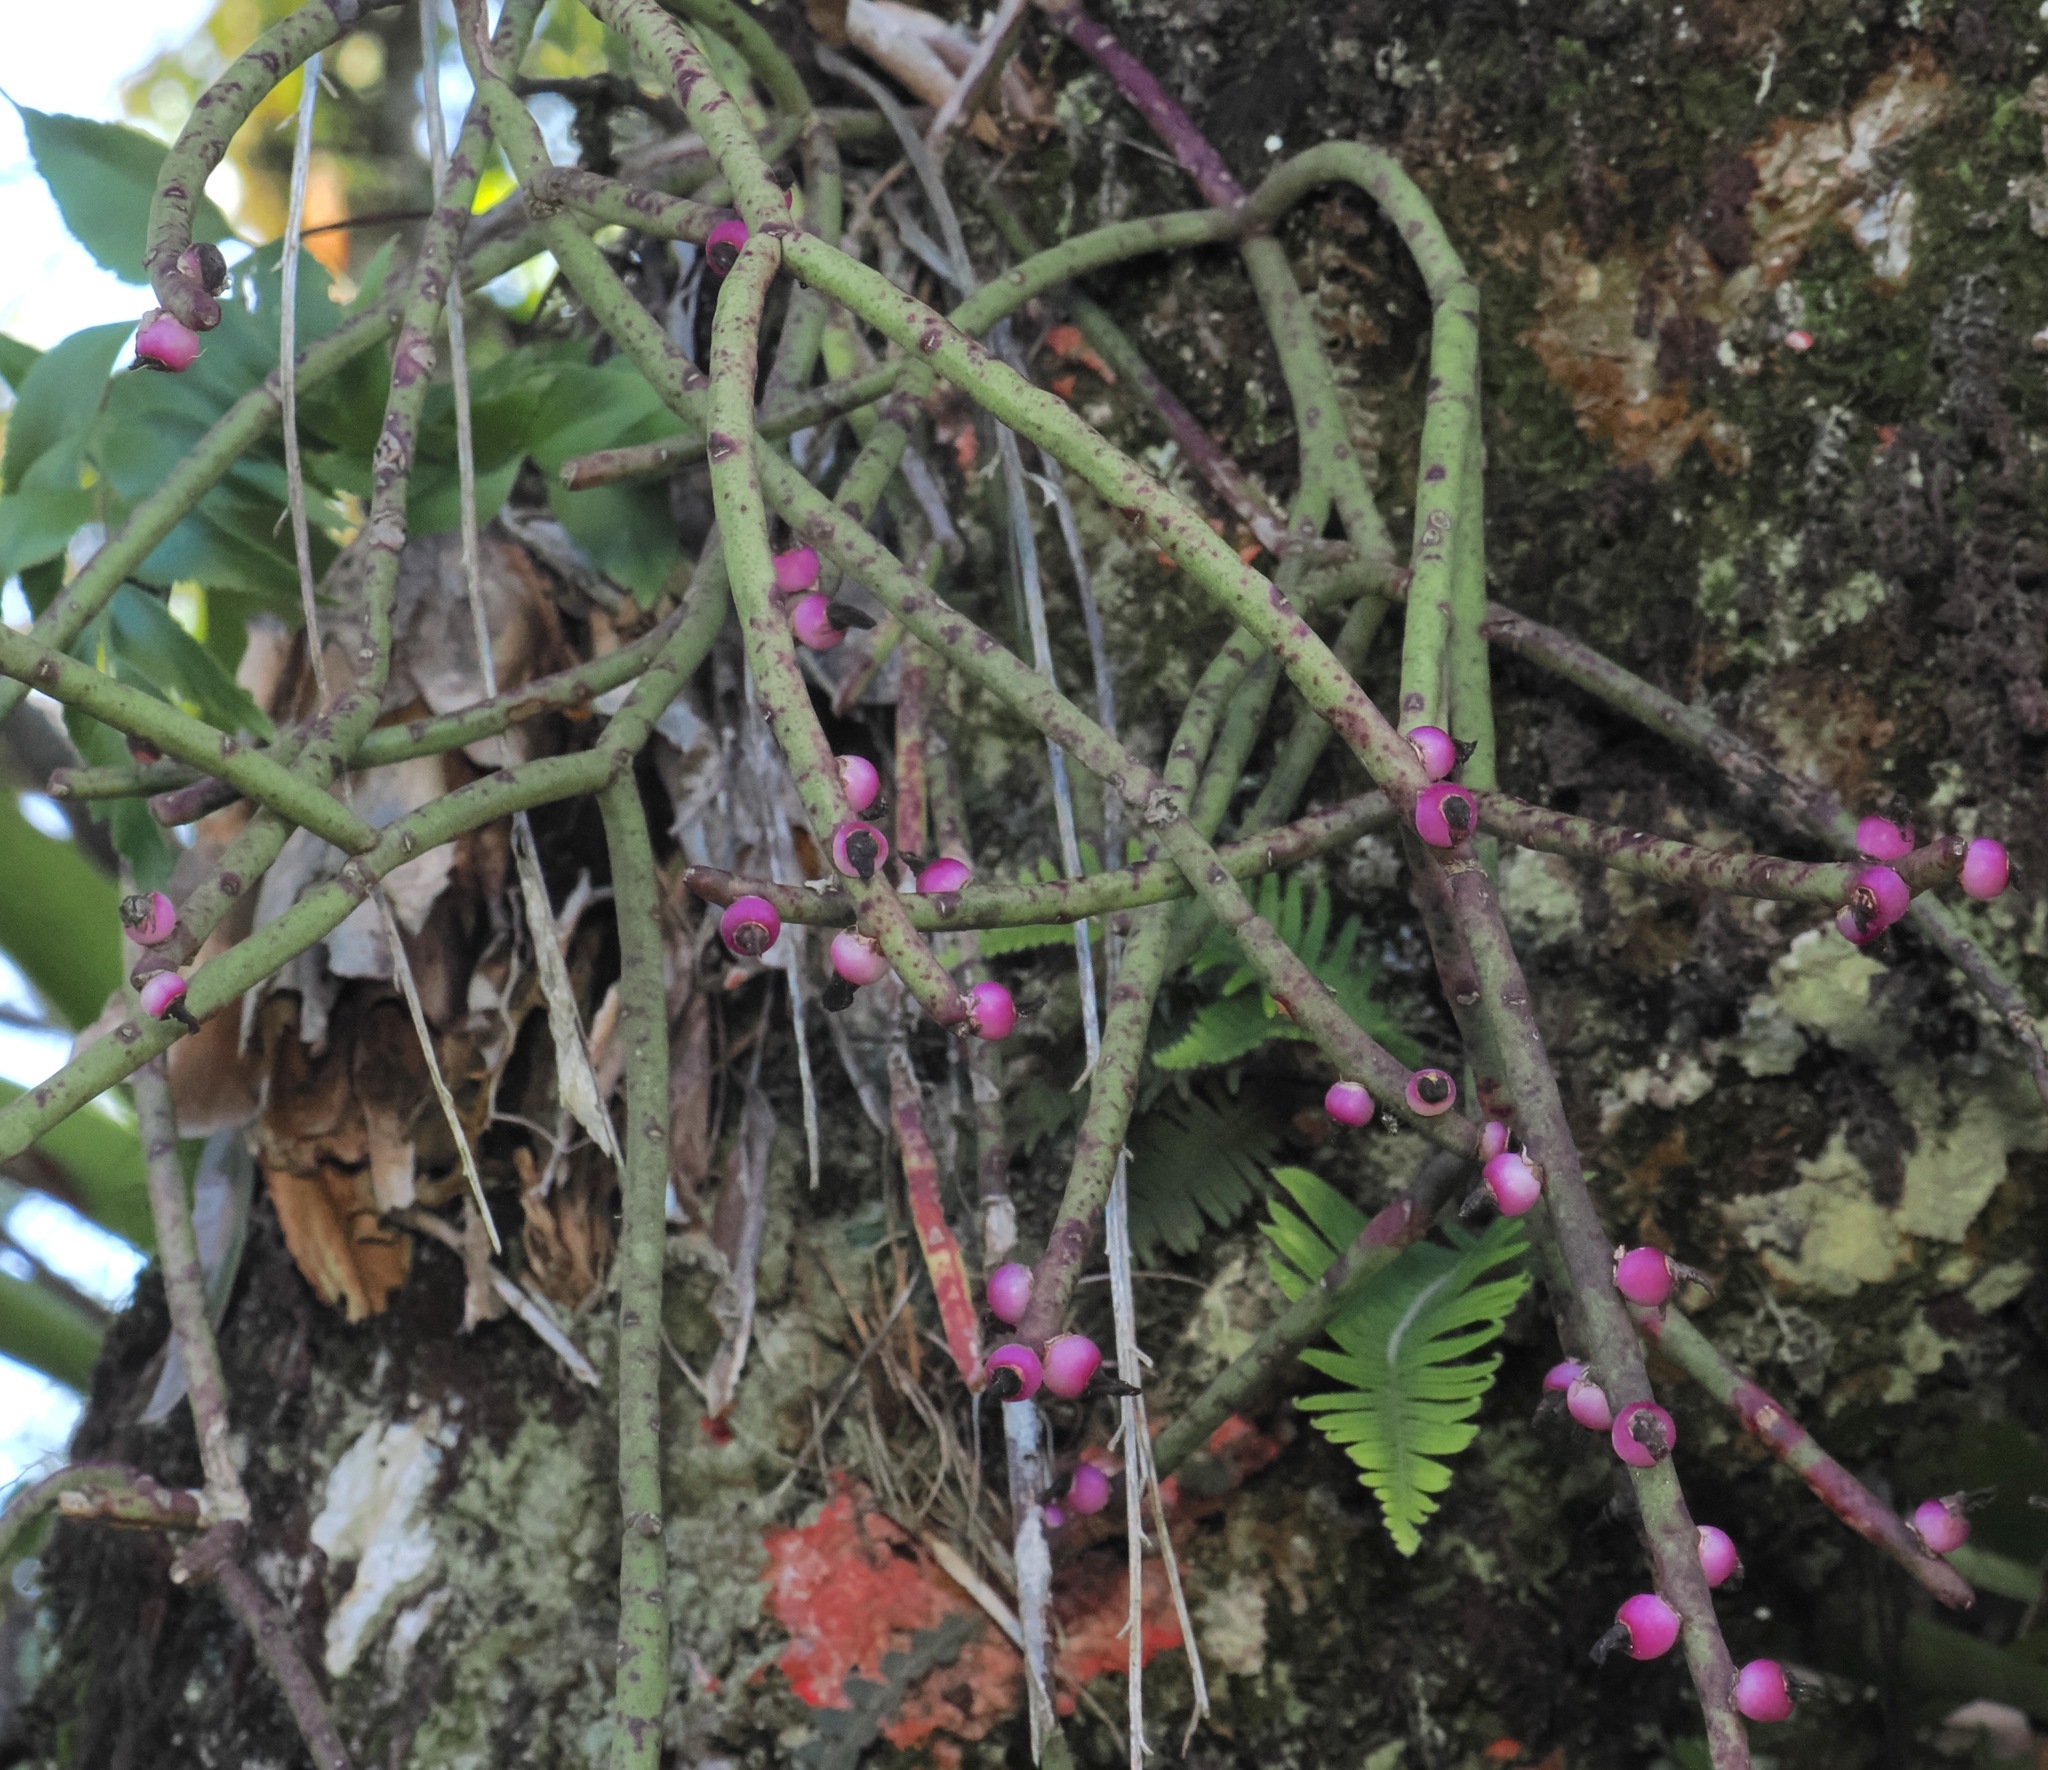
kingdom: Plantae
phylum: Tracheophyta
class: Magnoliopsida
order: Caryophyllales
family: Cactaceae
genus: Rhipsalis
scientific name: Rhipsalis floccosa
